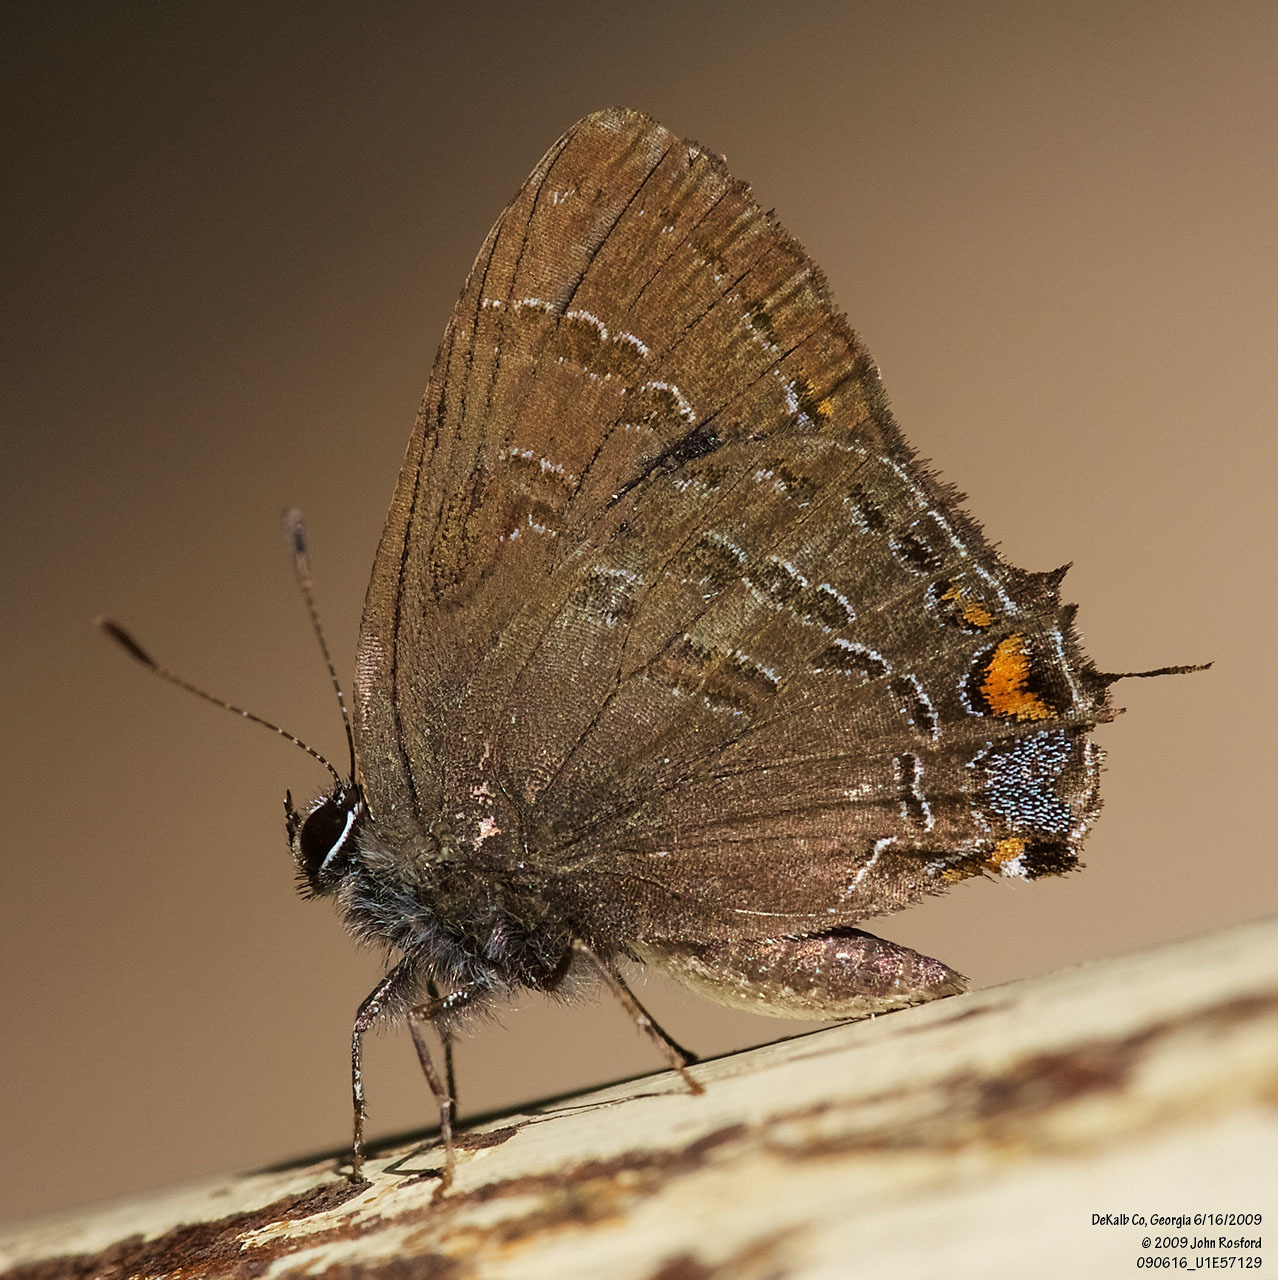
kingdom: Animalia
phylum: Arthropoda
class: Insecta
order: Lepidoptera
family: Lycaenidae
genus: Satyrium
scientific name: Satyrium calanus
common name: Banded hairstreak
